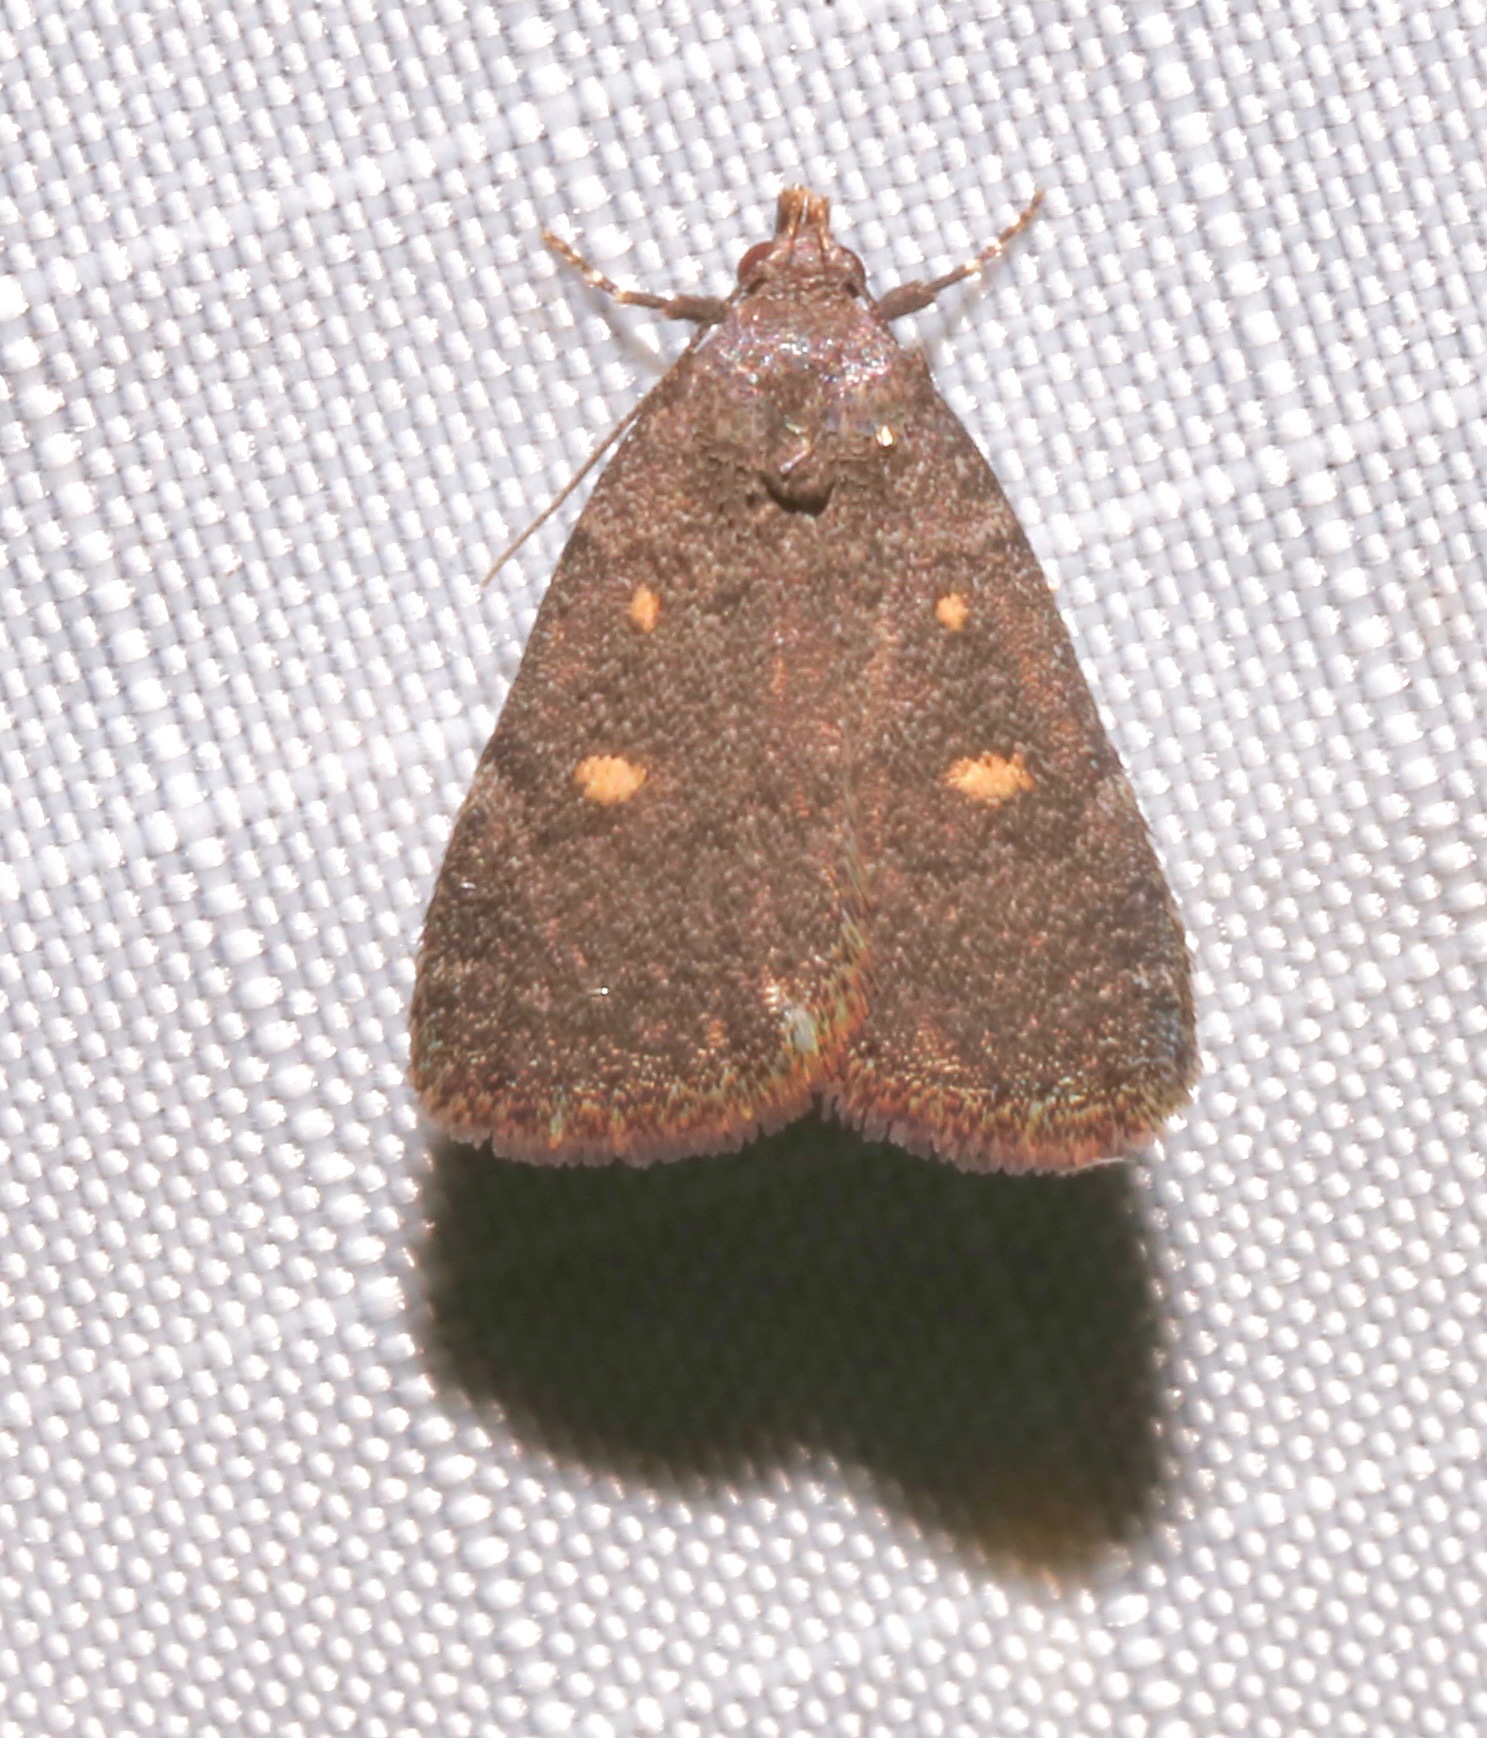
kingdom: Animalia
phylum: Arthropoda
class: Insecta
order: Lepidoptera
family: Erebidae
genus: Idia
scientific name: Idia diminuendis
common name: Orange-spotted idia moth
